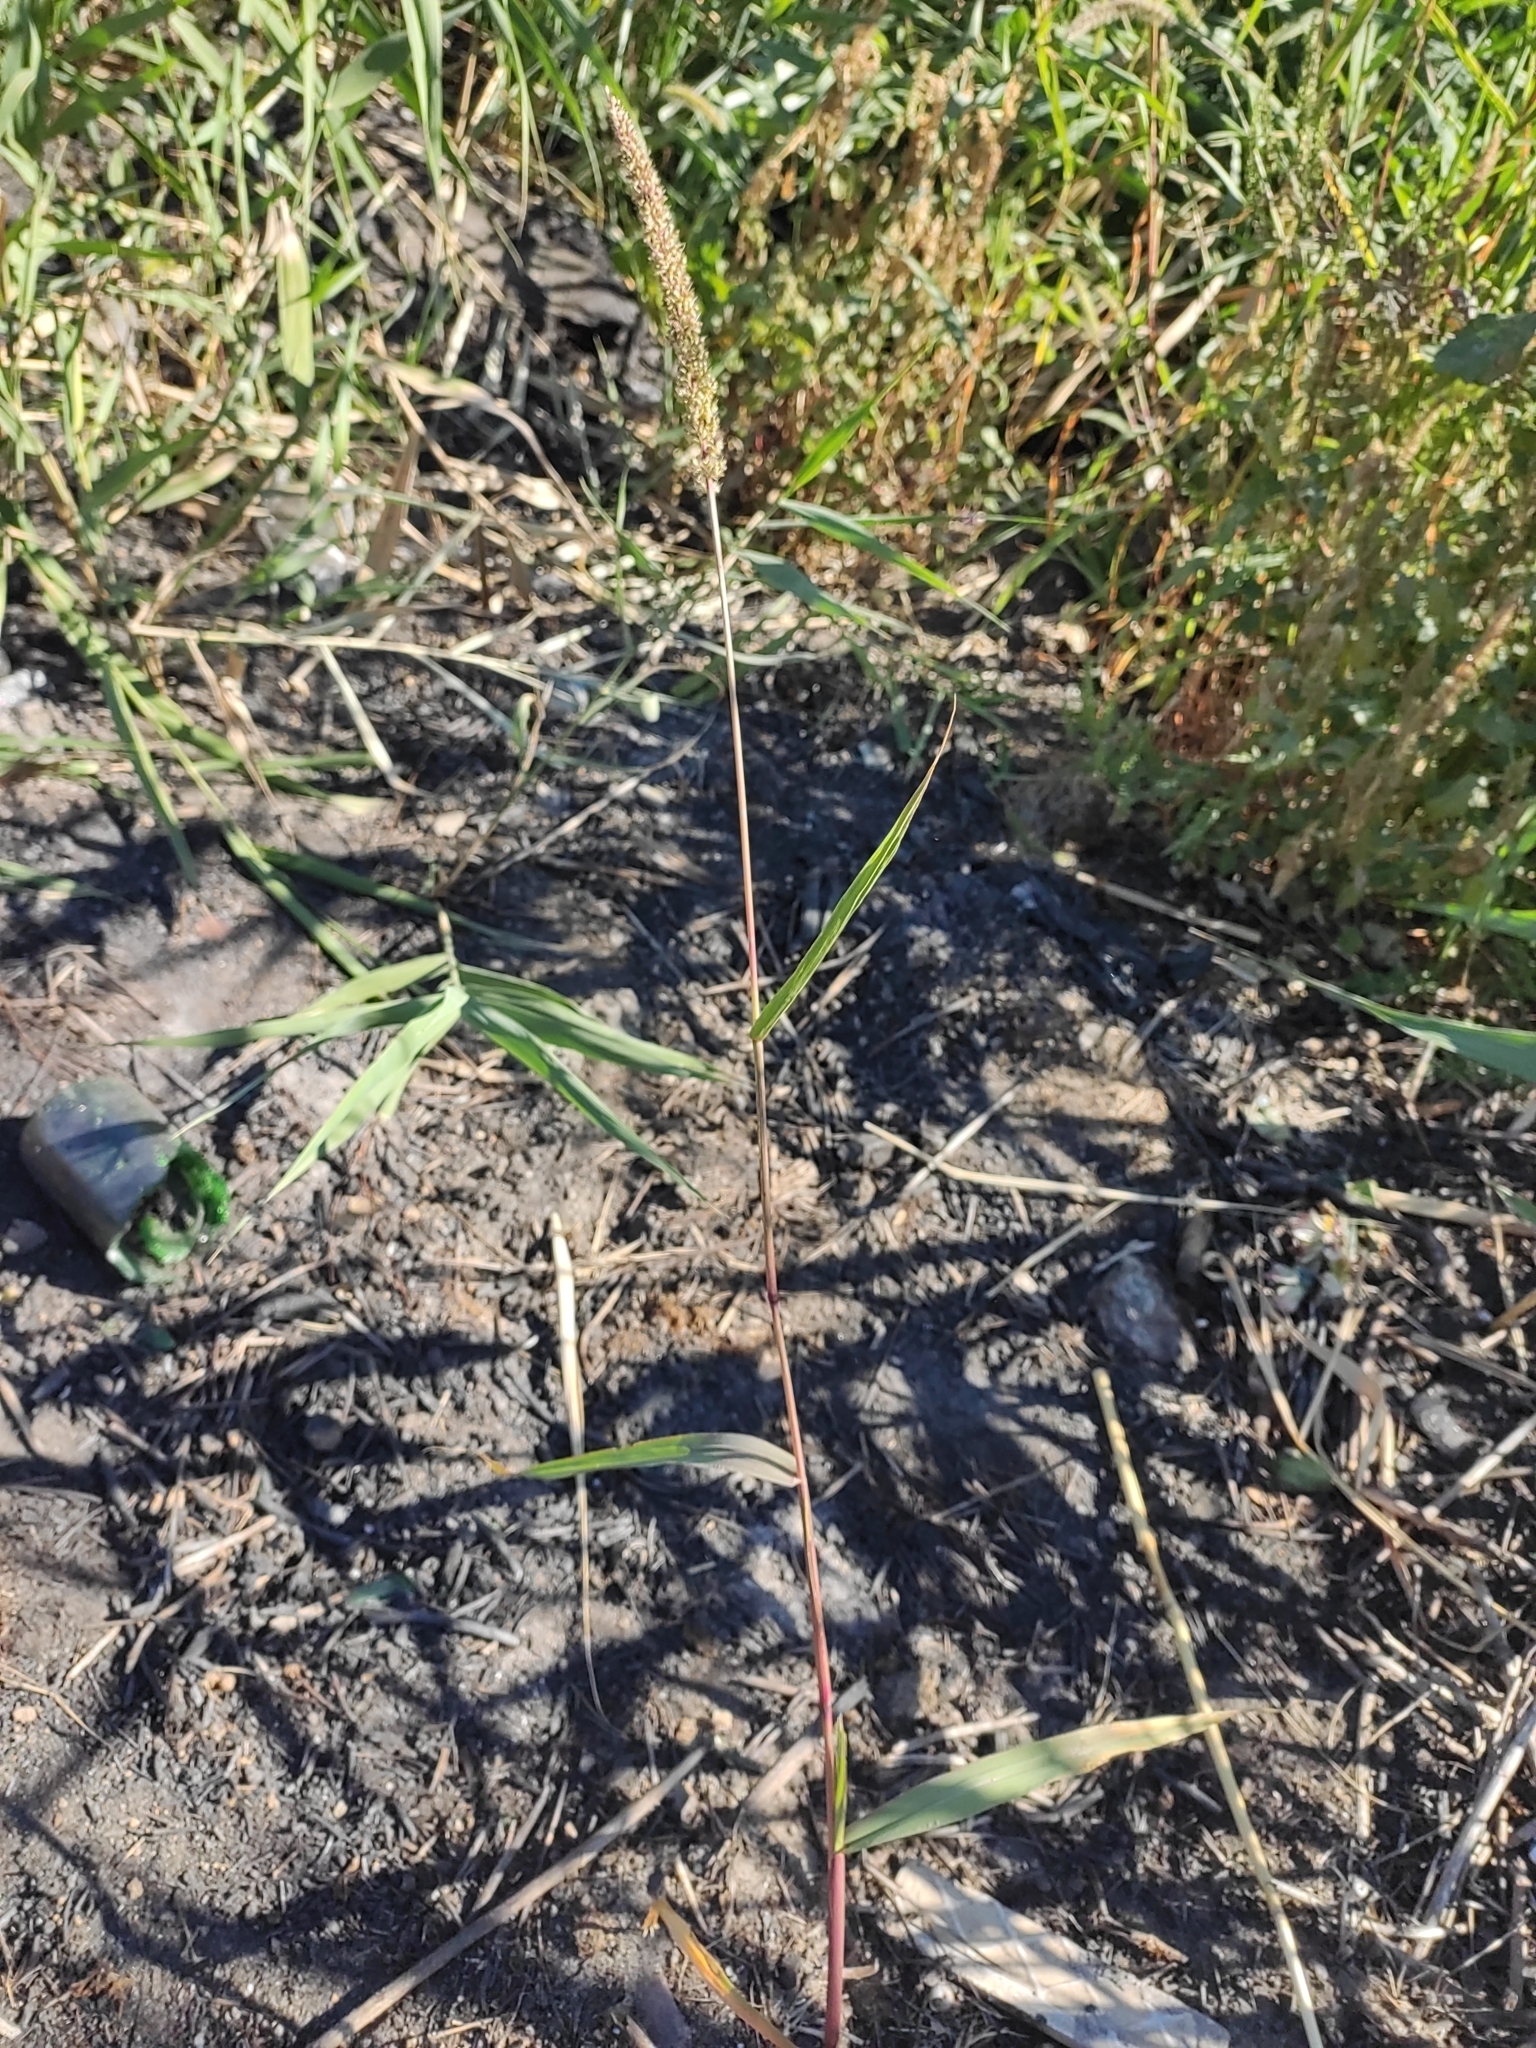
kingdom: Plantae
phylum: Tracheophyta
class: Liliopsida
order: Poales
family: Poaceae
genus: Setaria
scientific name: Setaria verticillata
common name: Hooked bristlegrass
